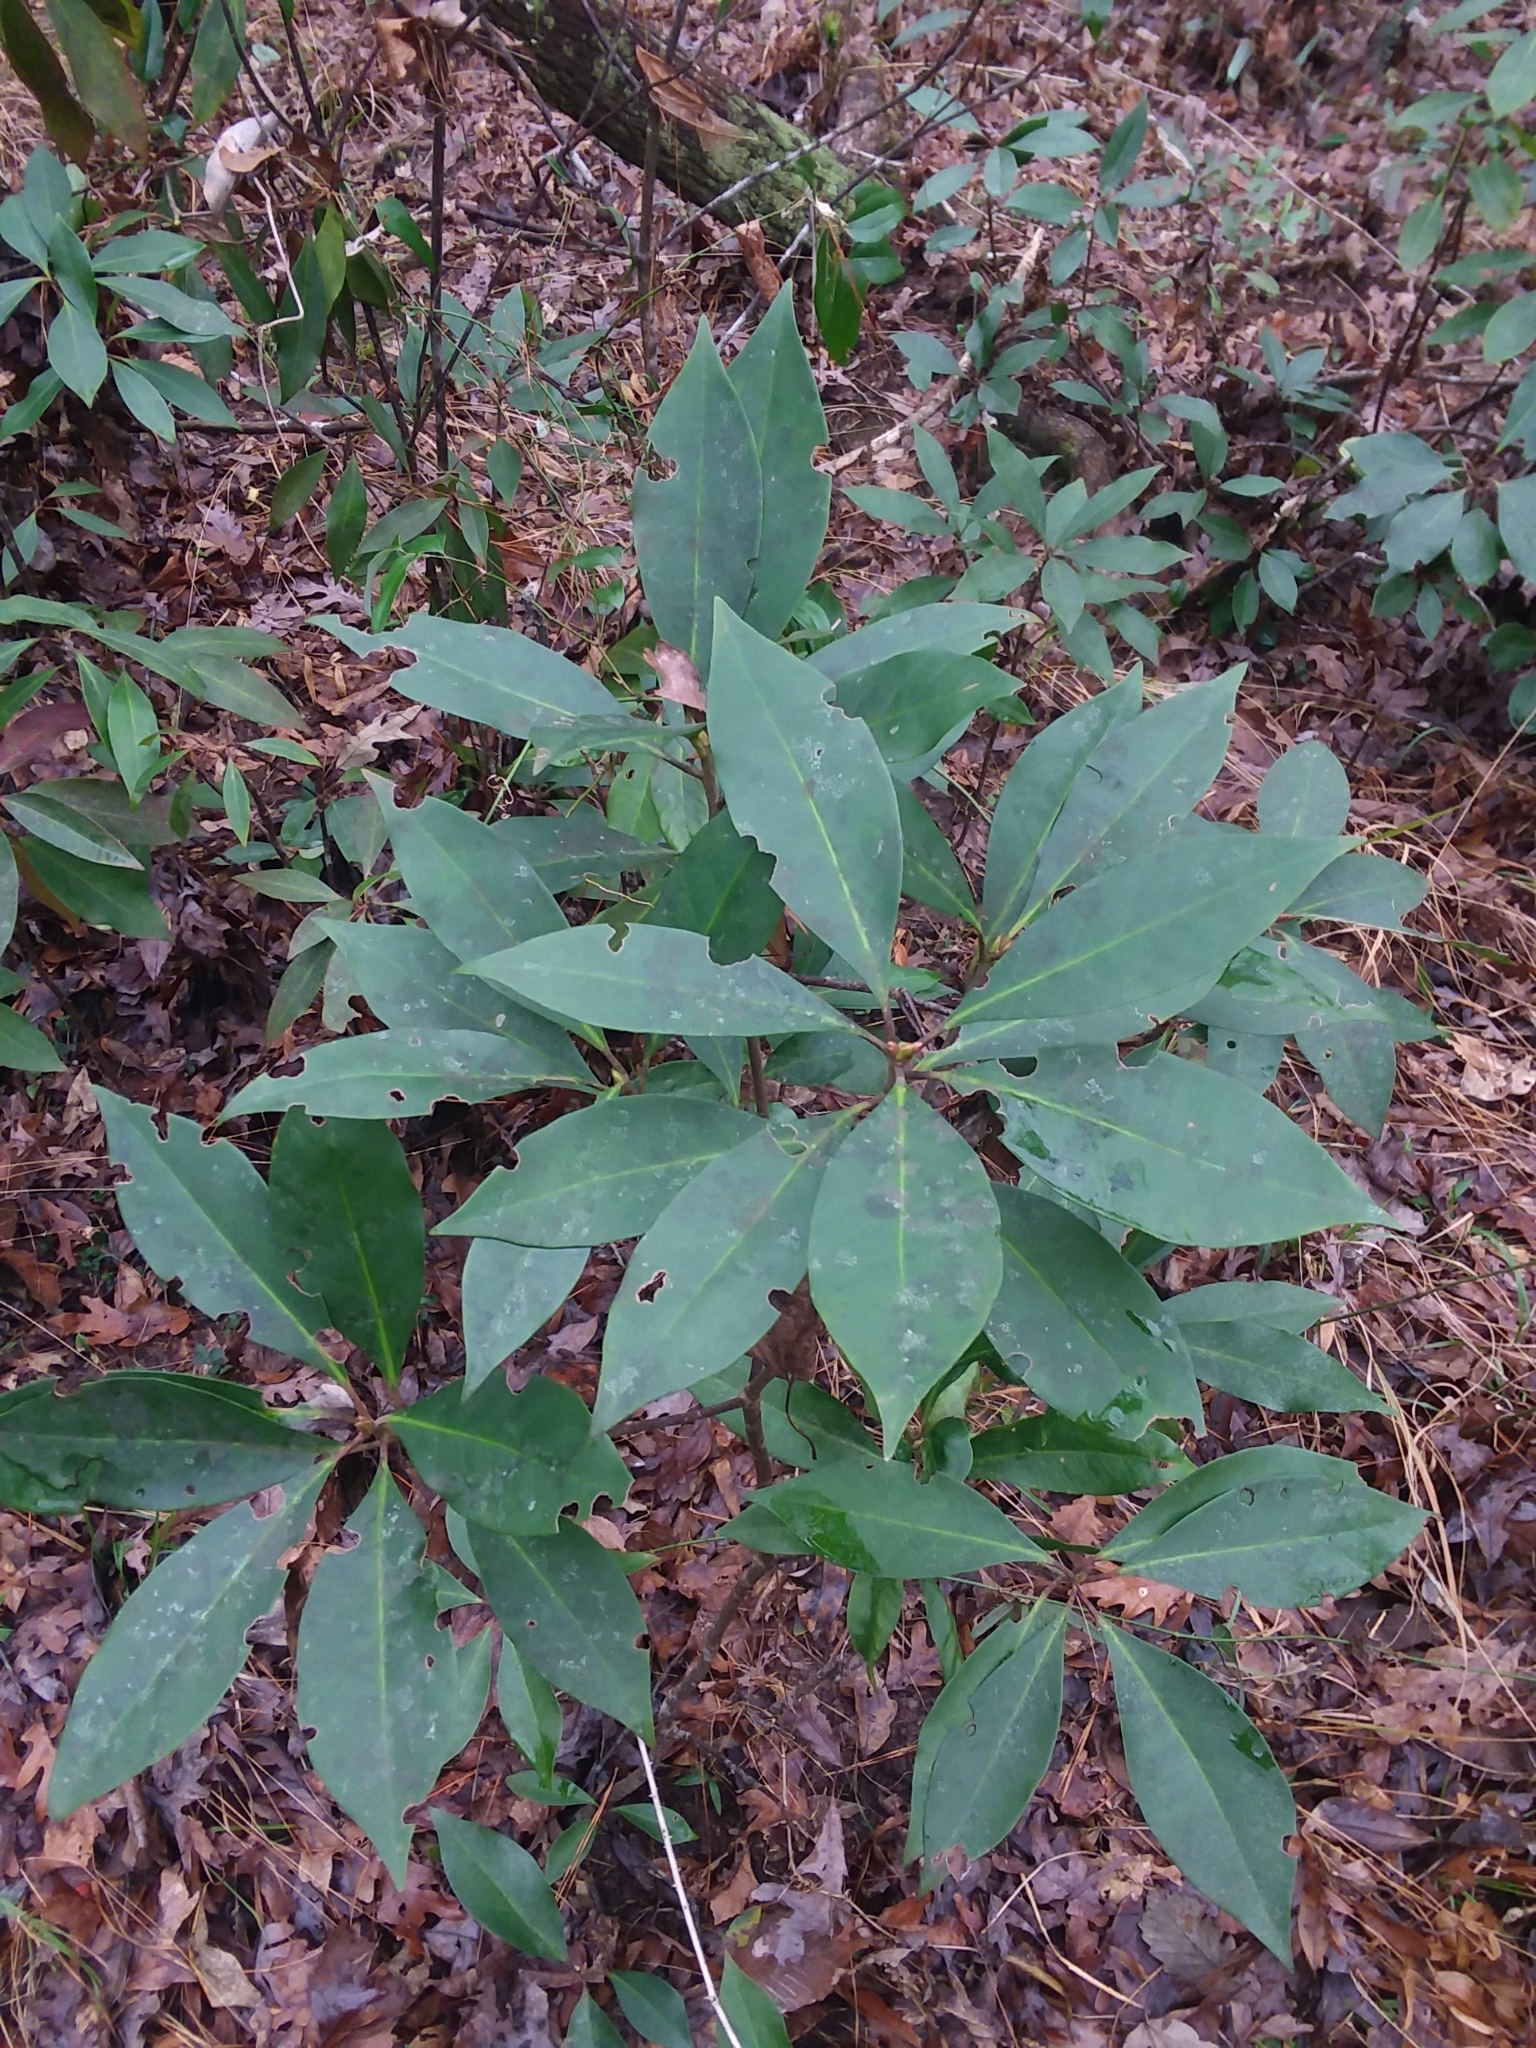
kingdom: Plantae
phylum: Tracheophyta
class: Magnoliopsida
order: Austrobaileyales
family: Schisandraceae
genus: Illicium
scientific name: Illicium floridanum
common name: Florida anisetree
